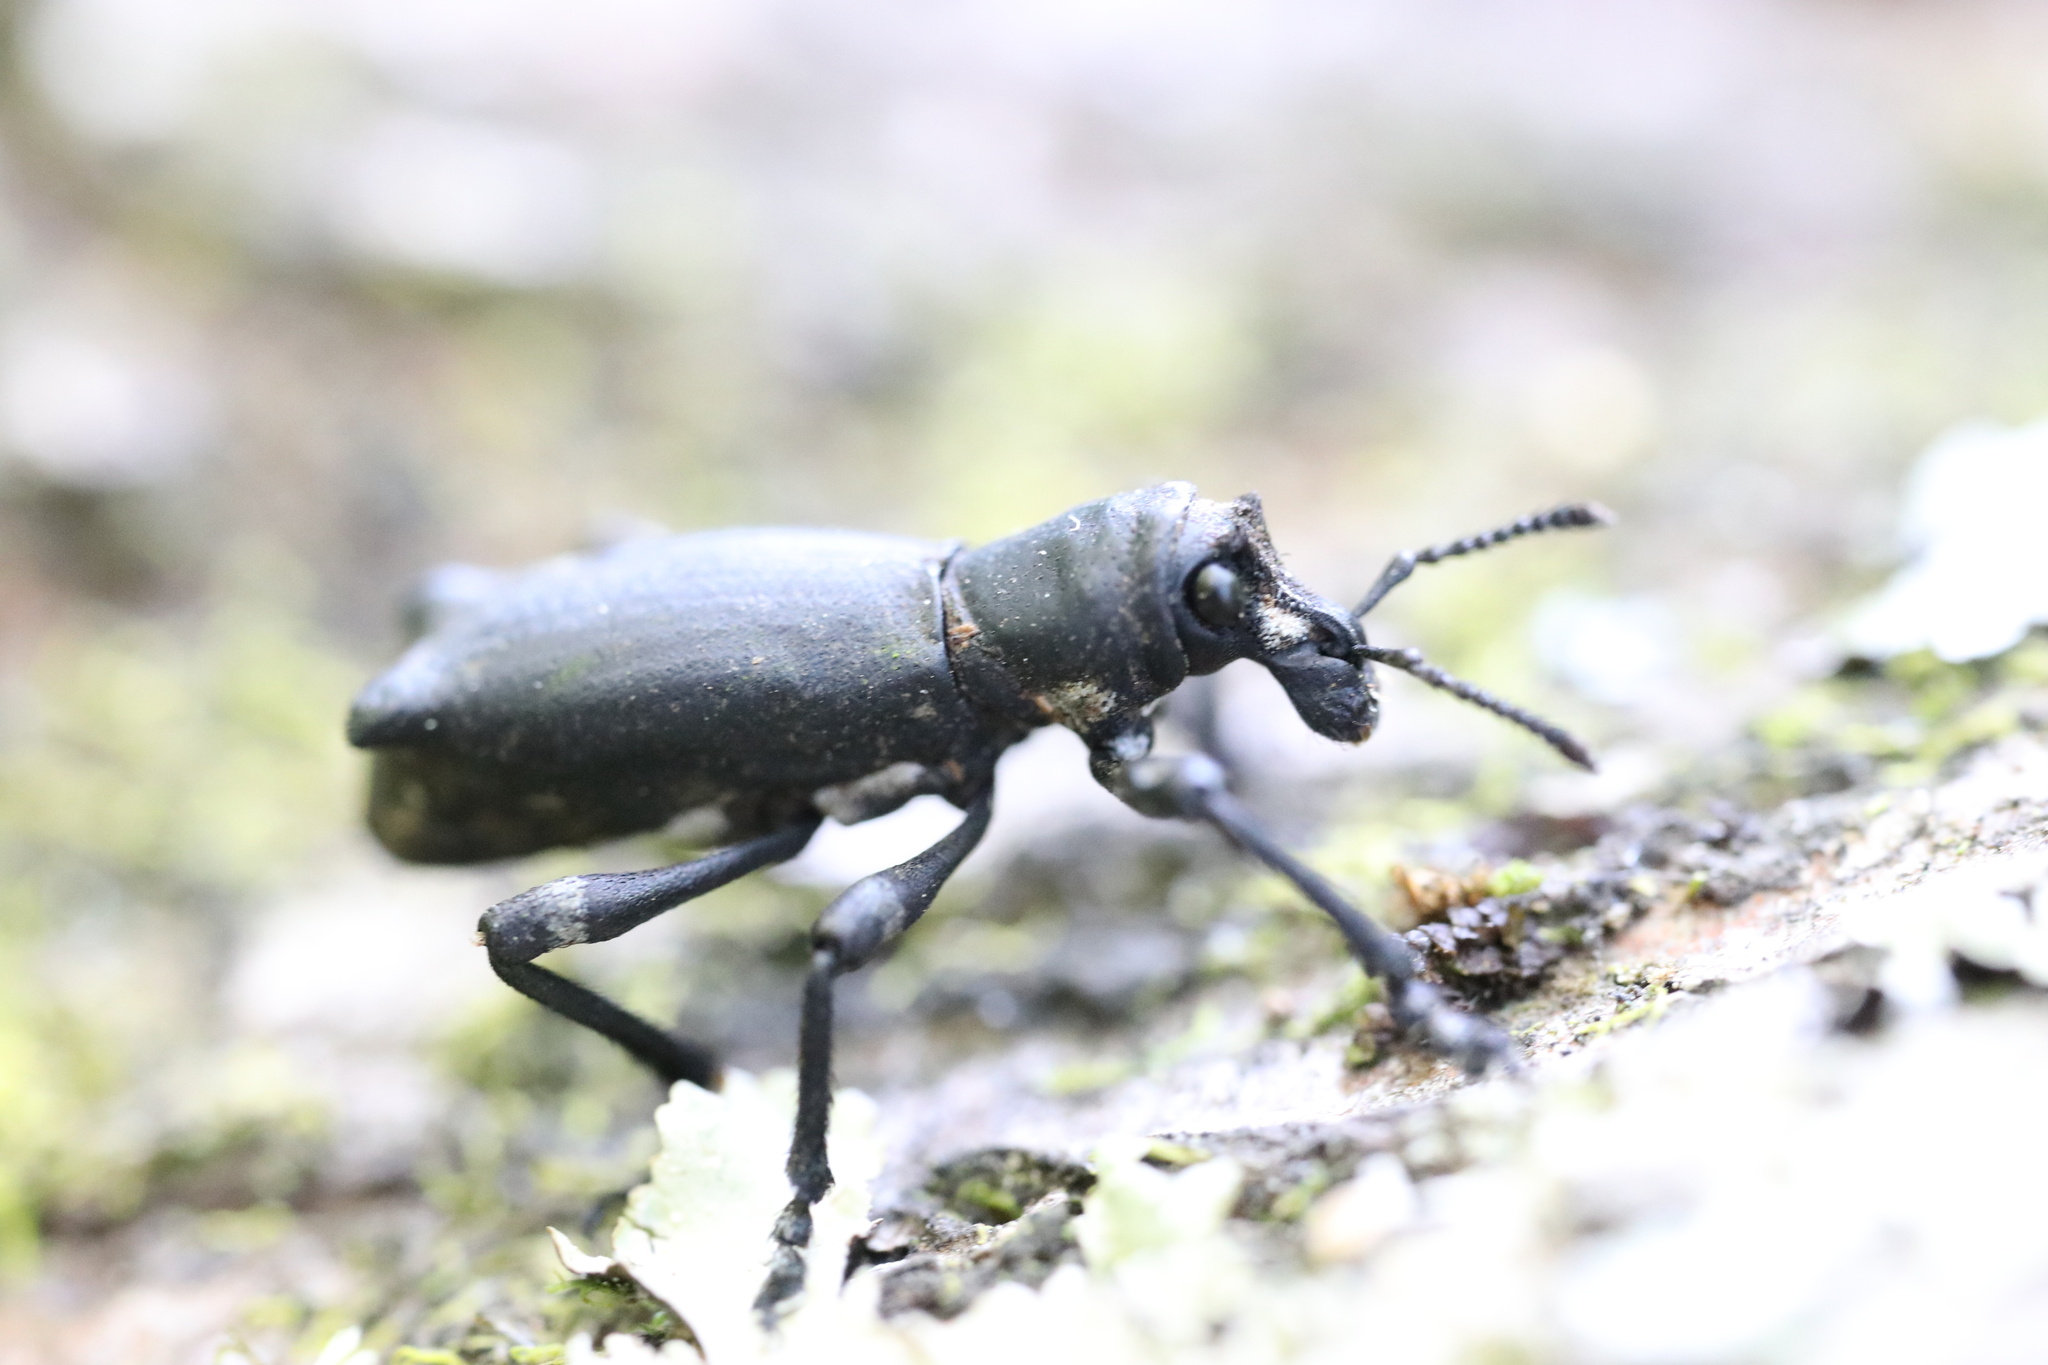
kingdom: Animalia
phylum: Arthropoda
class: Insecta
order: Coleoptera
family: Curculionidae
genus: Aegorhinus
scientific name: Aegorhinus
